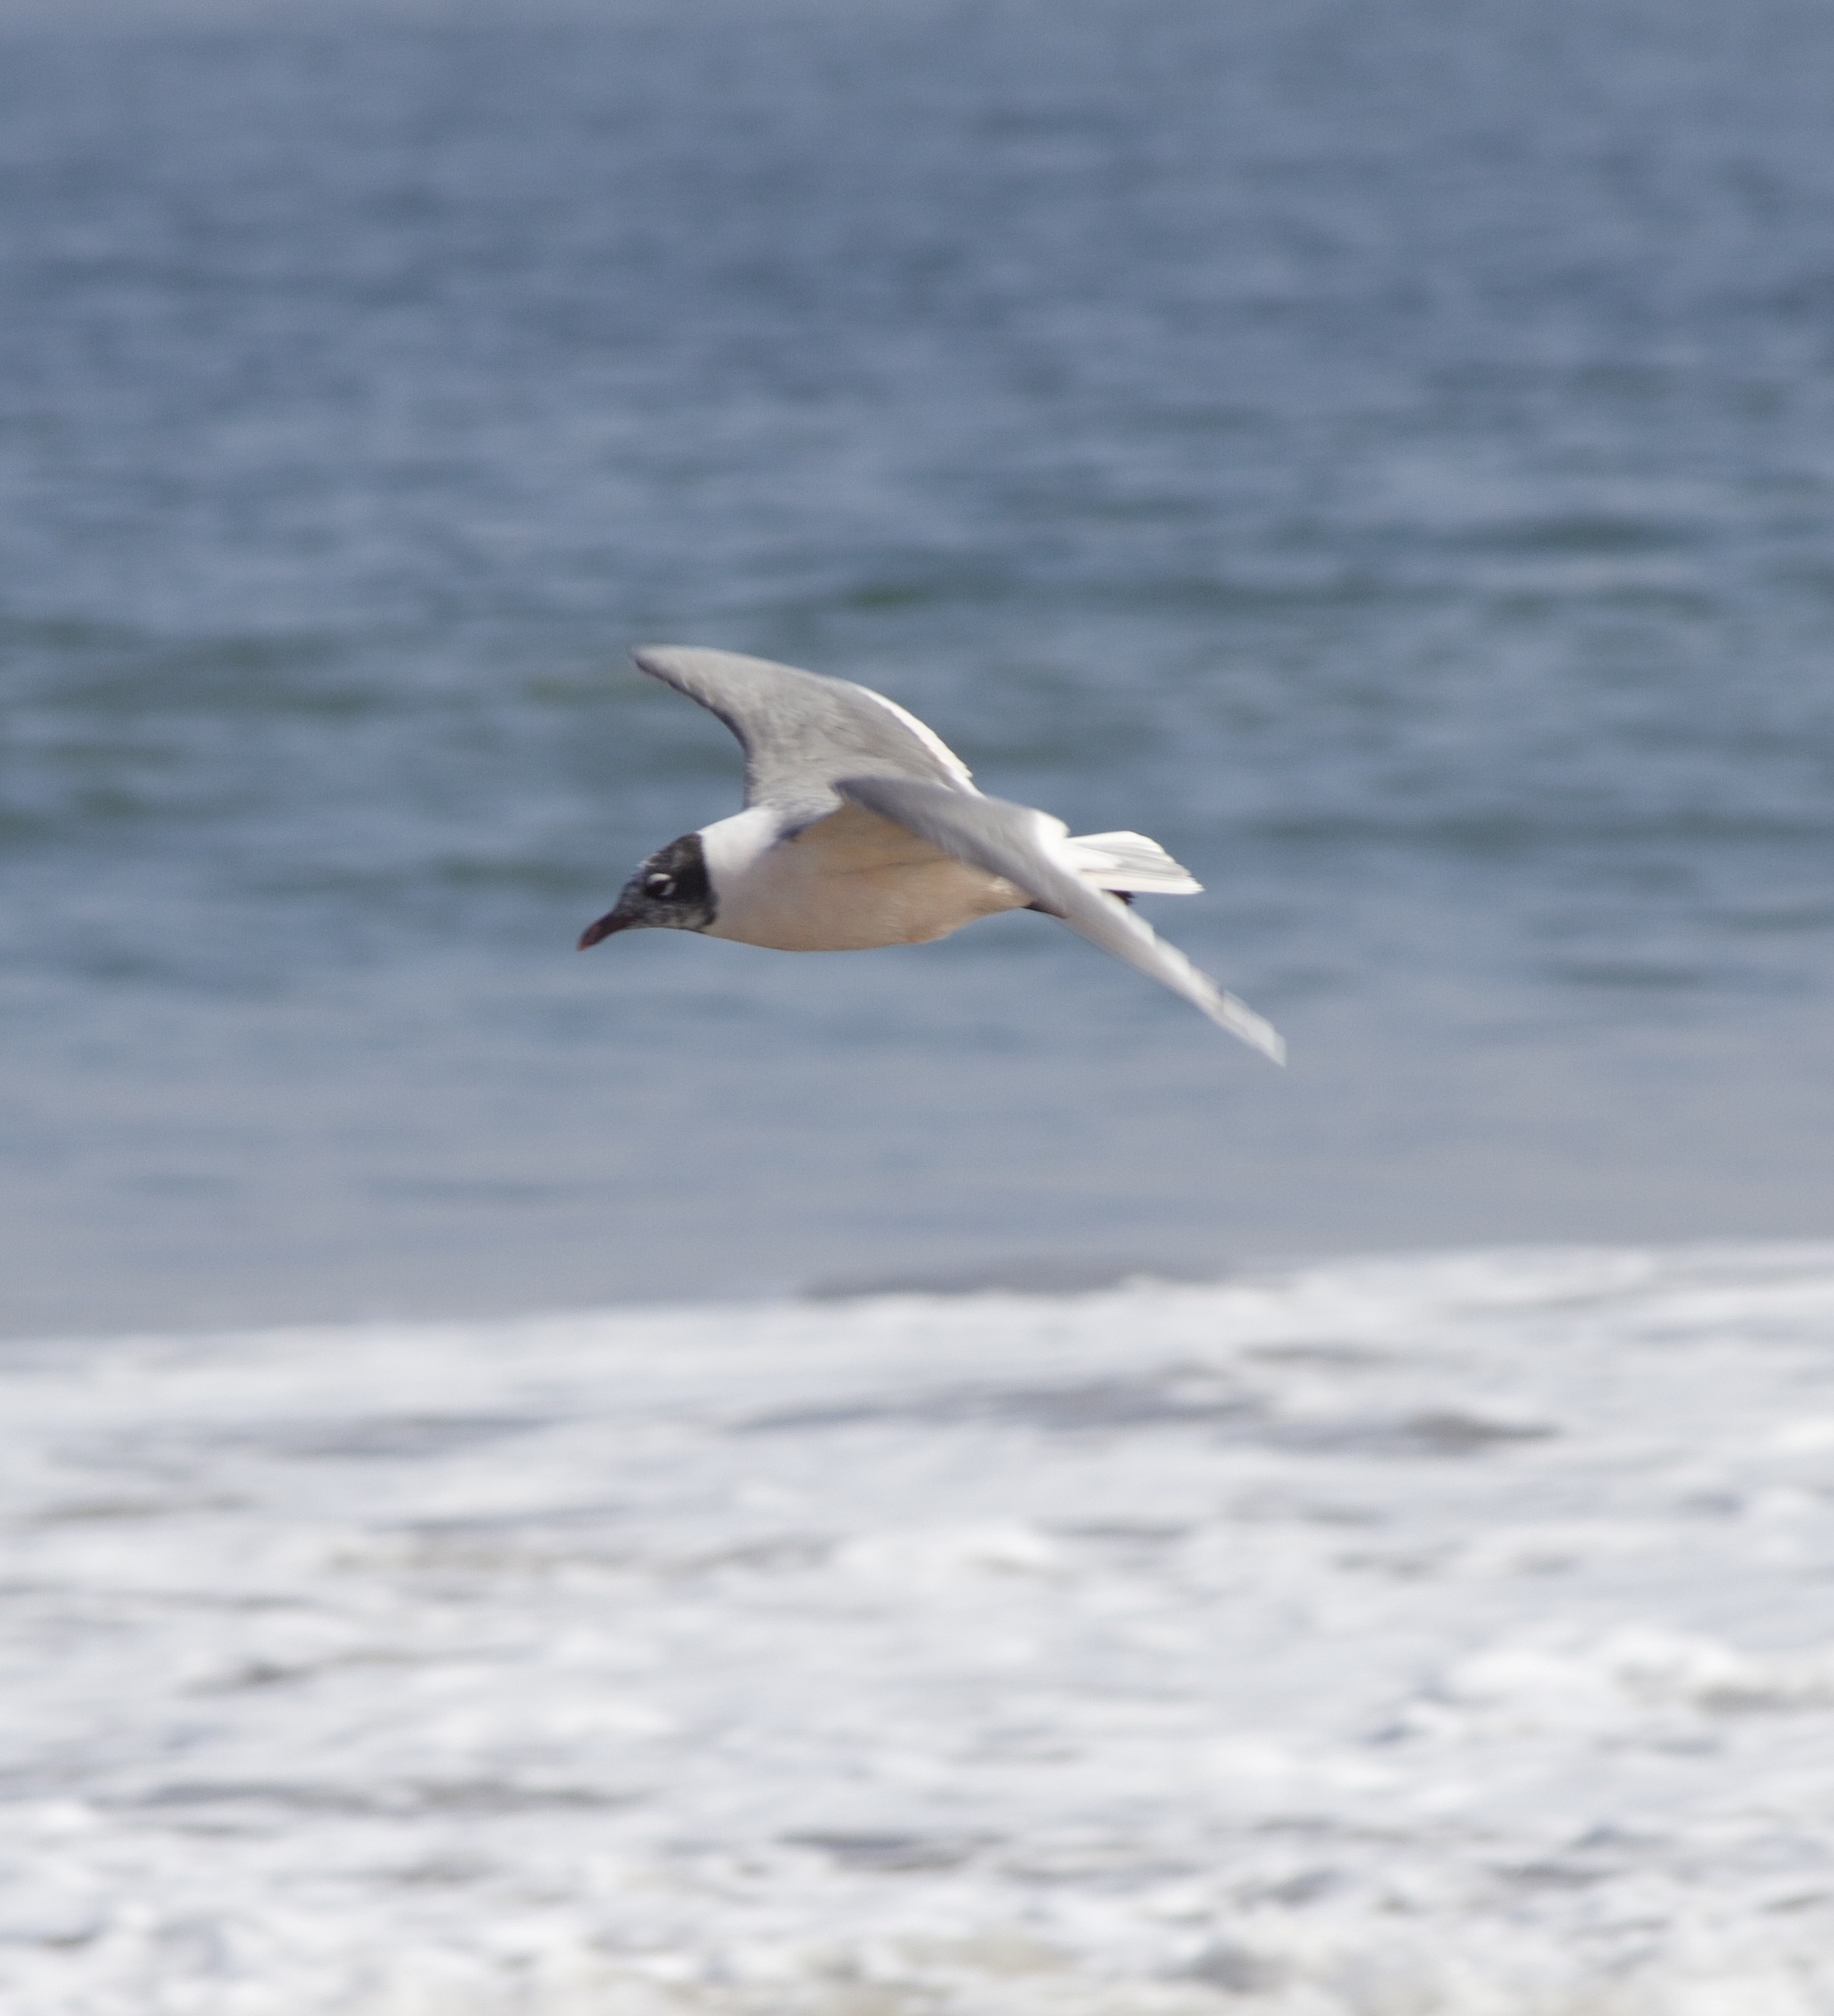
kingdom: Animalia
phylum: Chordata
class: Aves
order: Charadriiformes
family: Laridae
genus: Leucophaeus
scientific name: Leucophaeus pipixcan
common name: Franklin's gull
